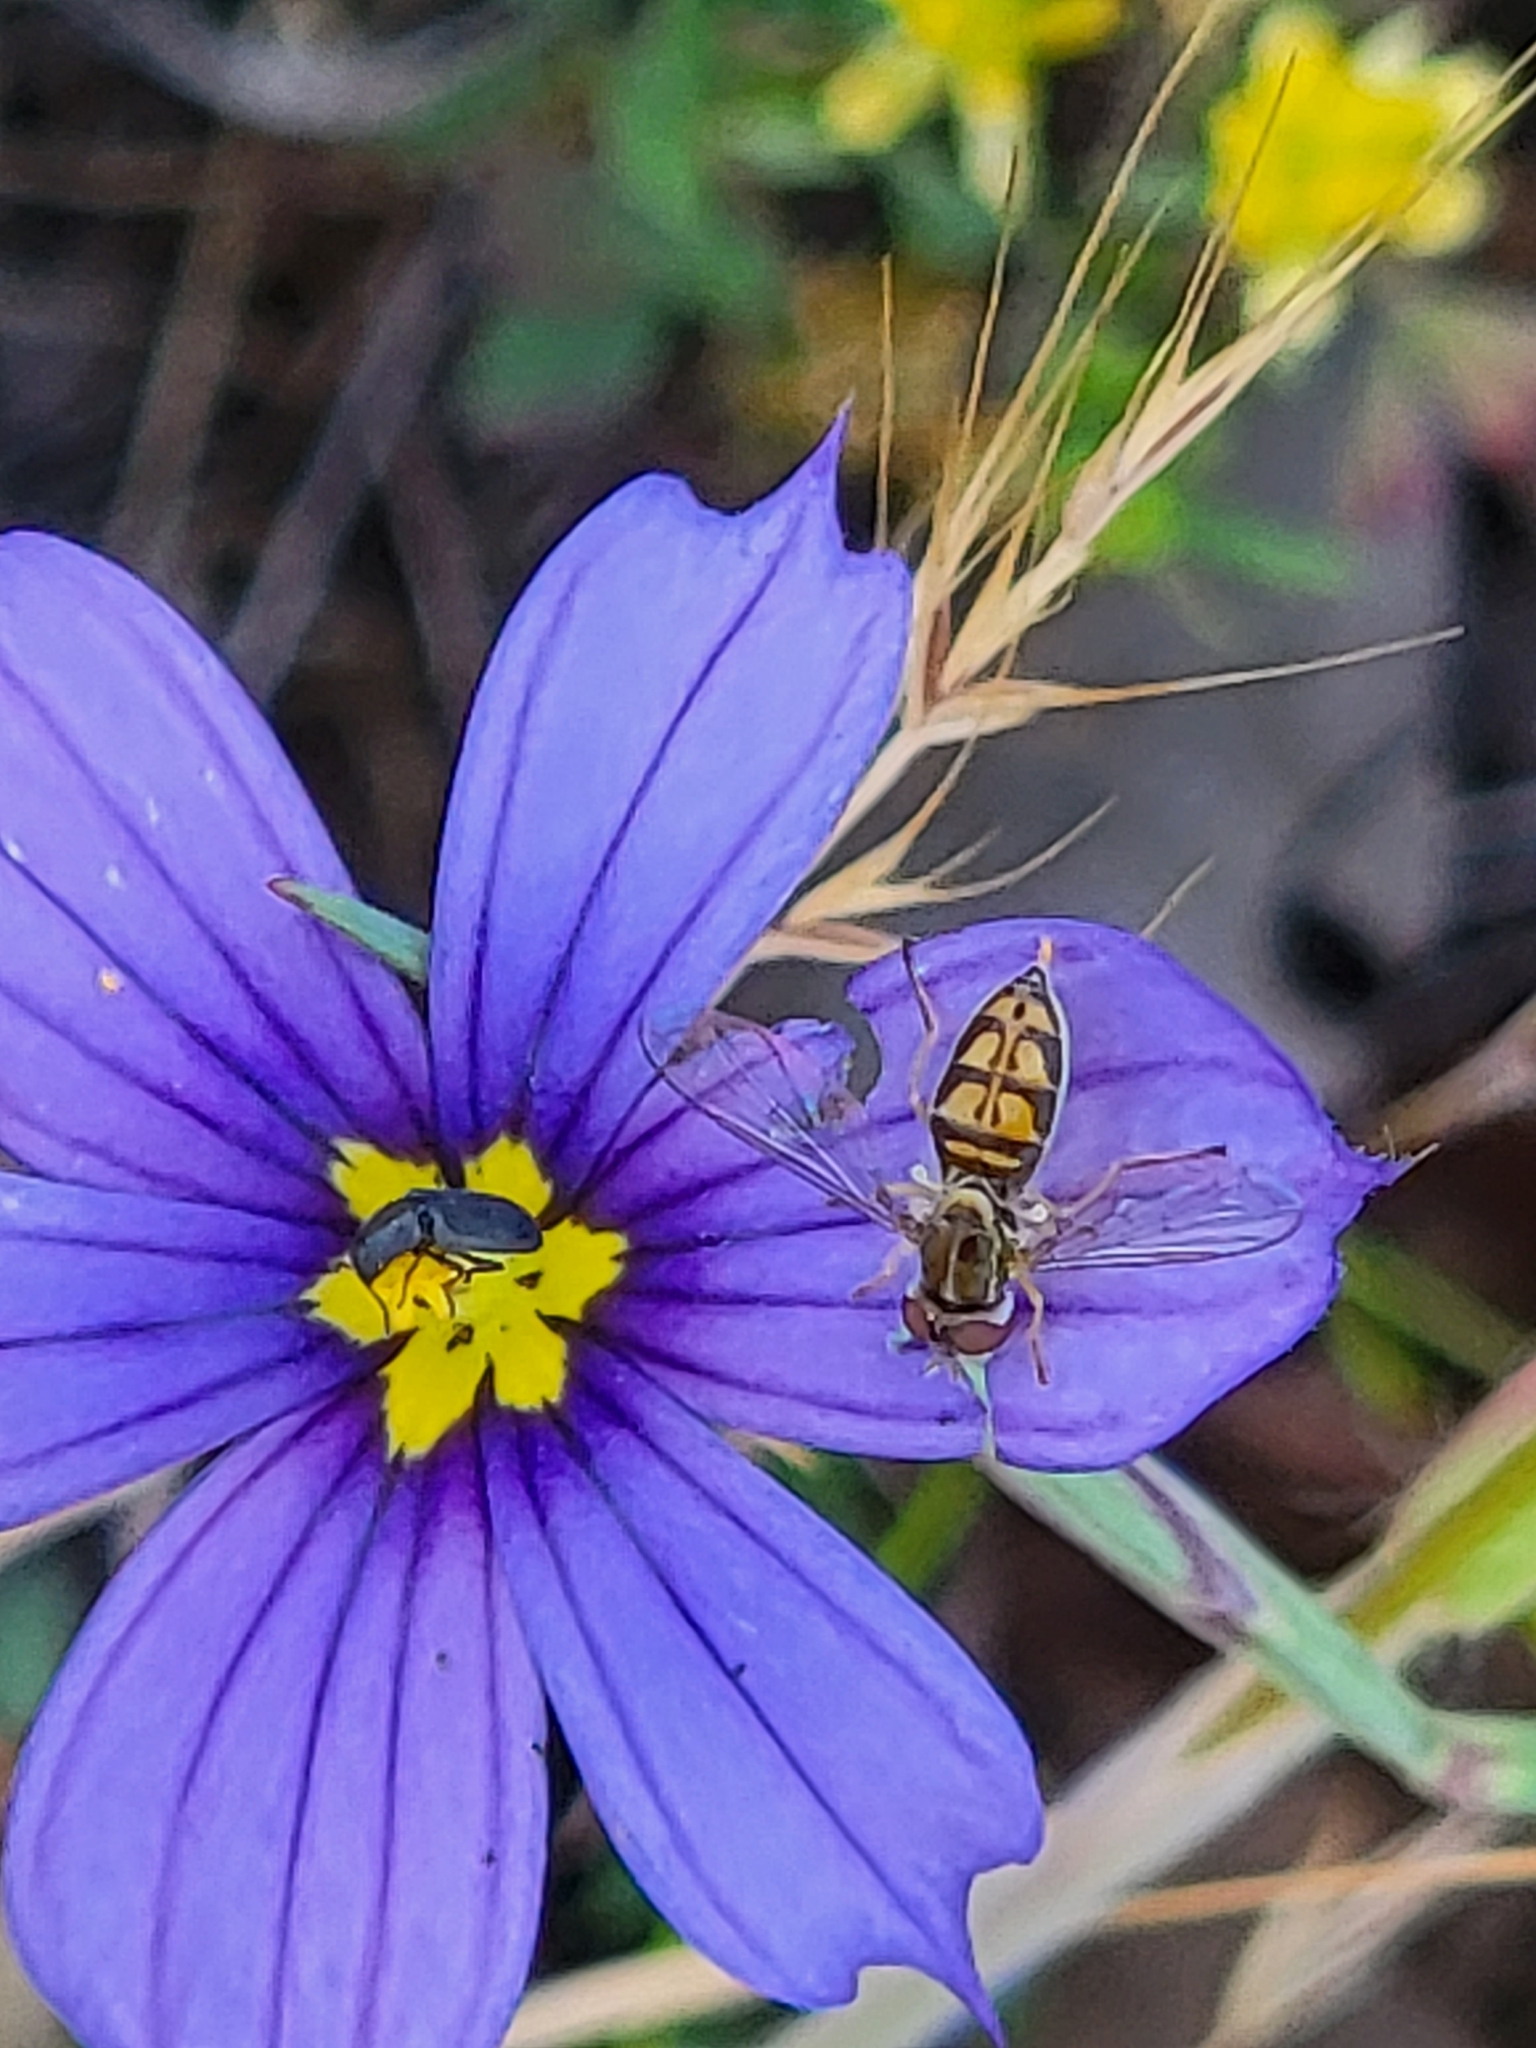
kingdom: Animalia
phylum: Arthropoda
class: Insecta
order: Diptera
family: Syrphidae
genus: Toxomerus
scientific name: Toxomerus marginatus
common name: Syrphid fly
